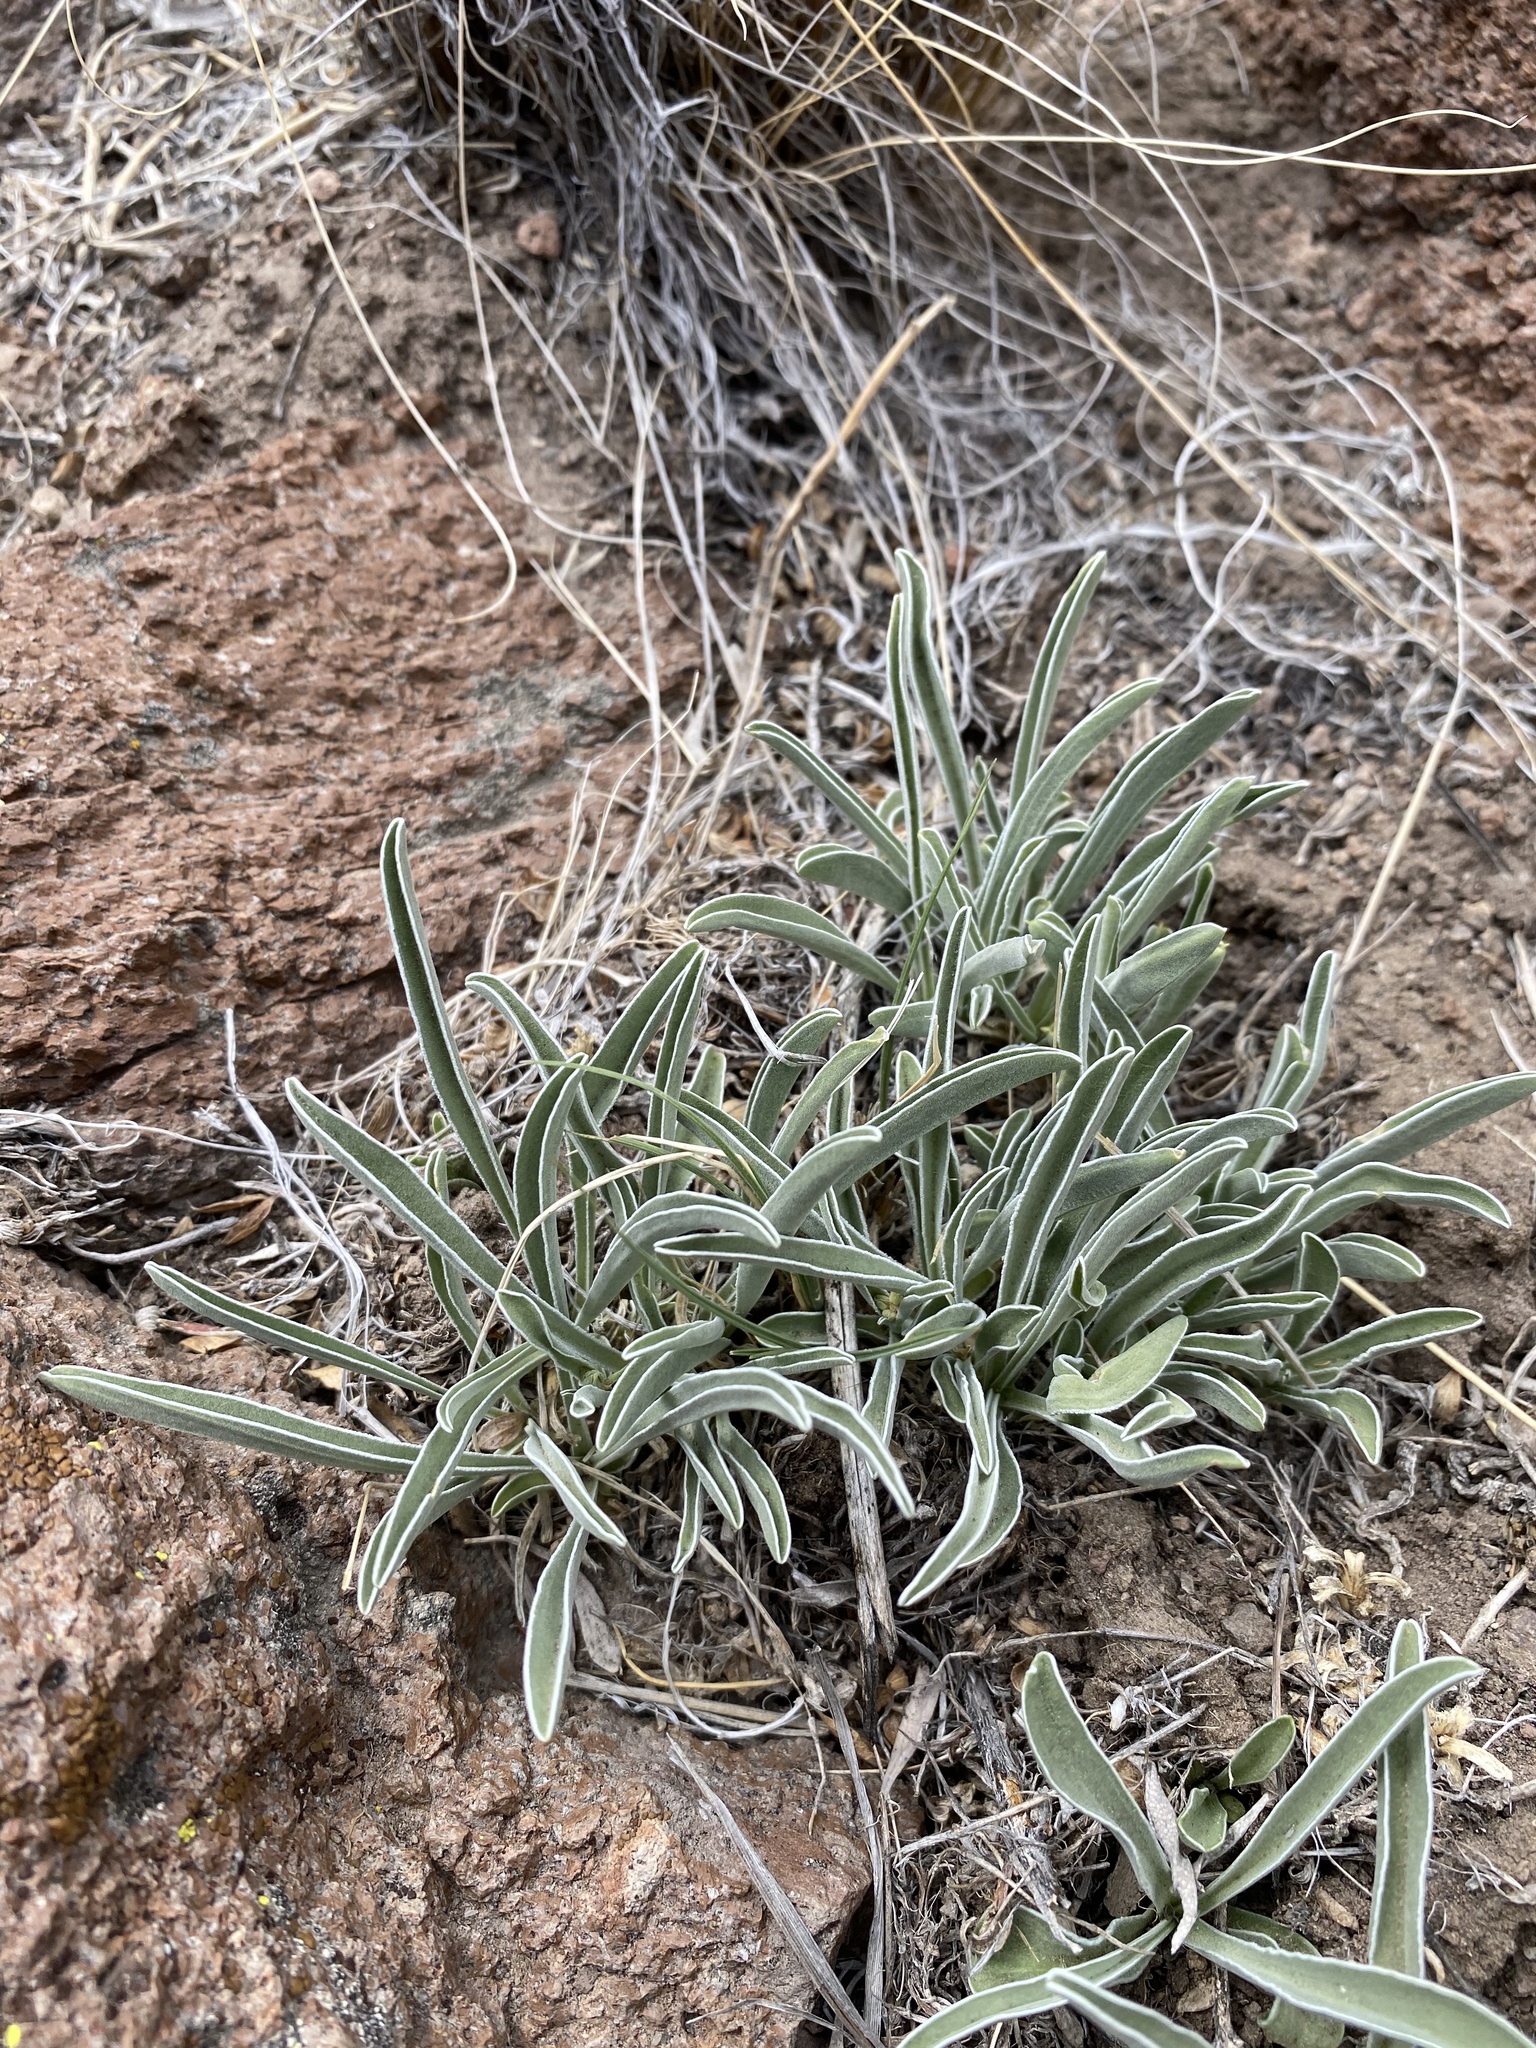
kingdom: Plantae
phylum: Tracheophyta
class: Magnoliopsida
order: Gentianales
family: Gentianaceae
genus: Frasera
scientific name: Frasera albicaulis
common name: Cusick's frasera
